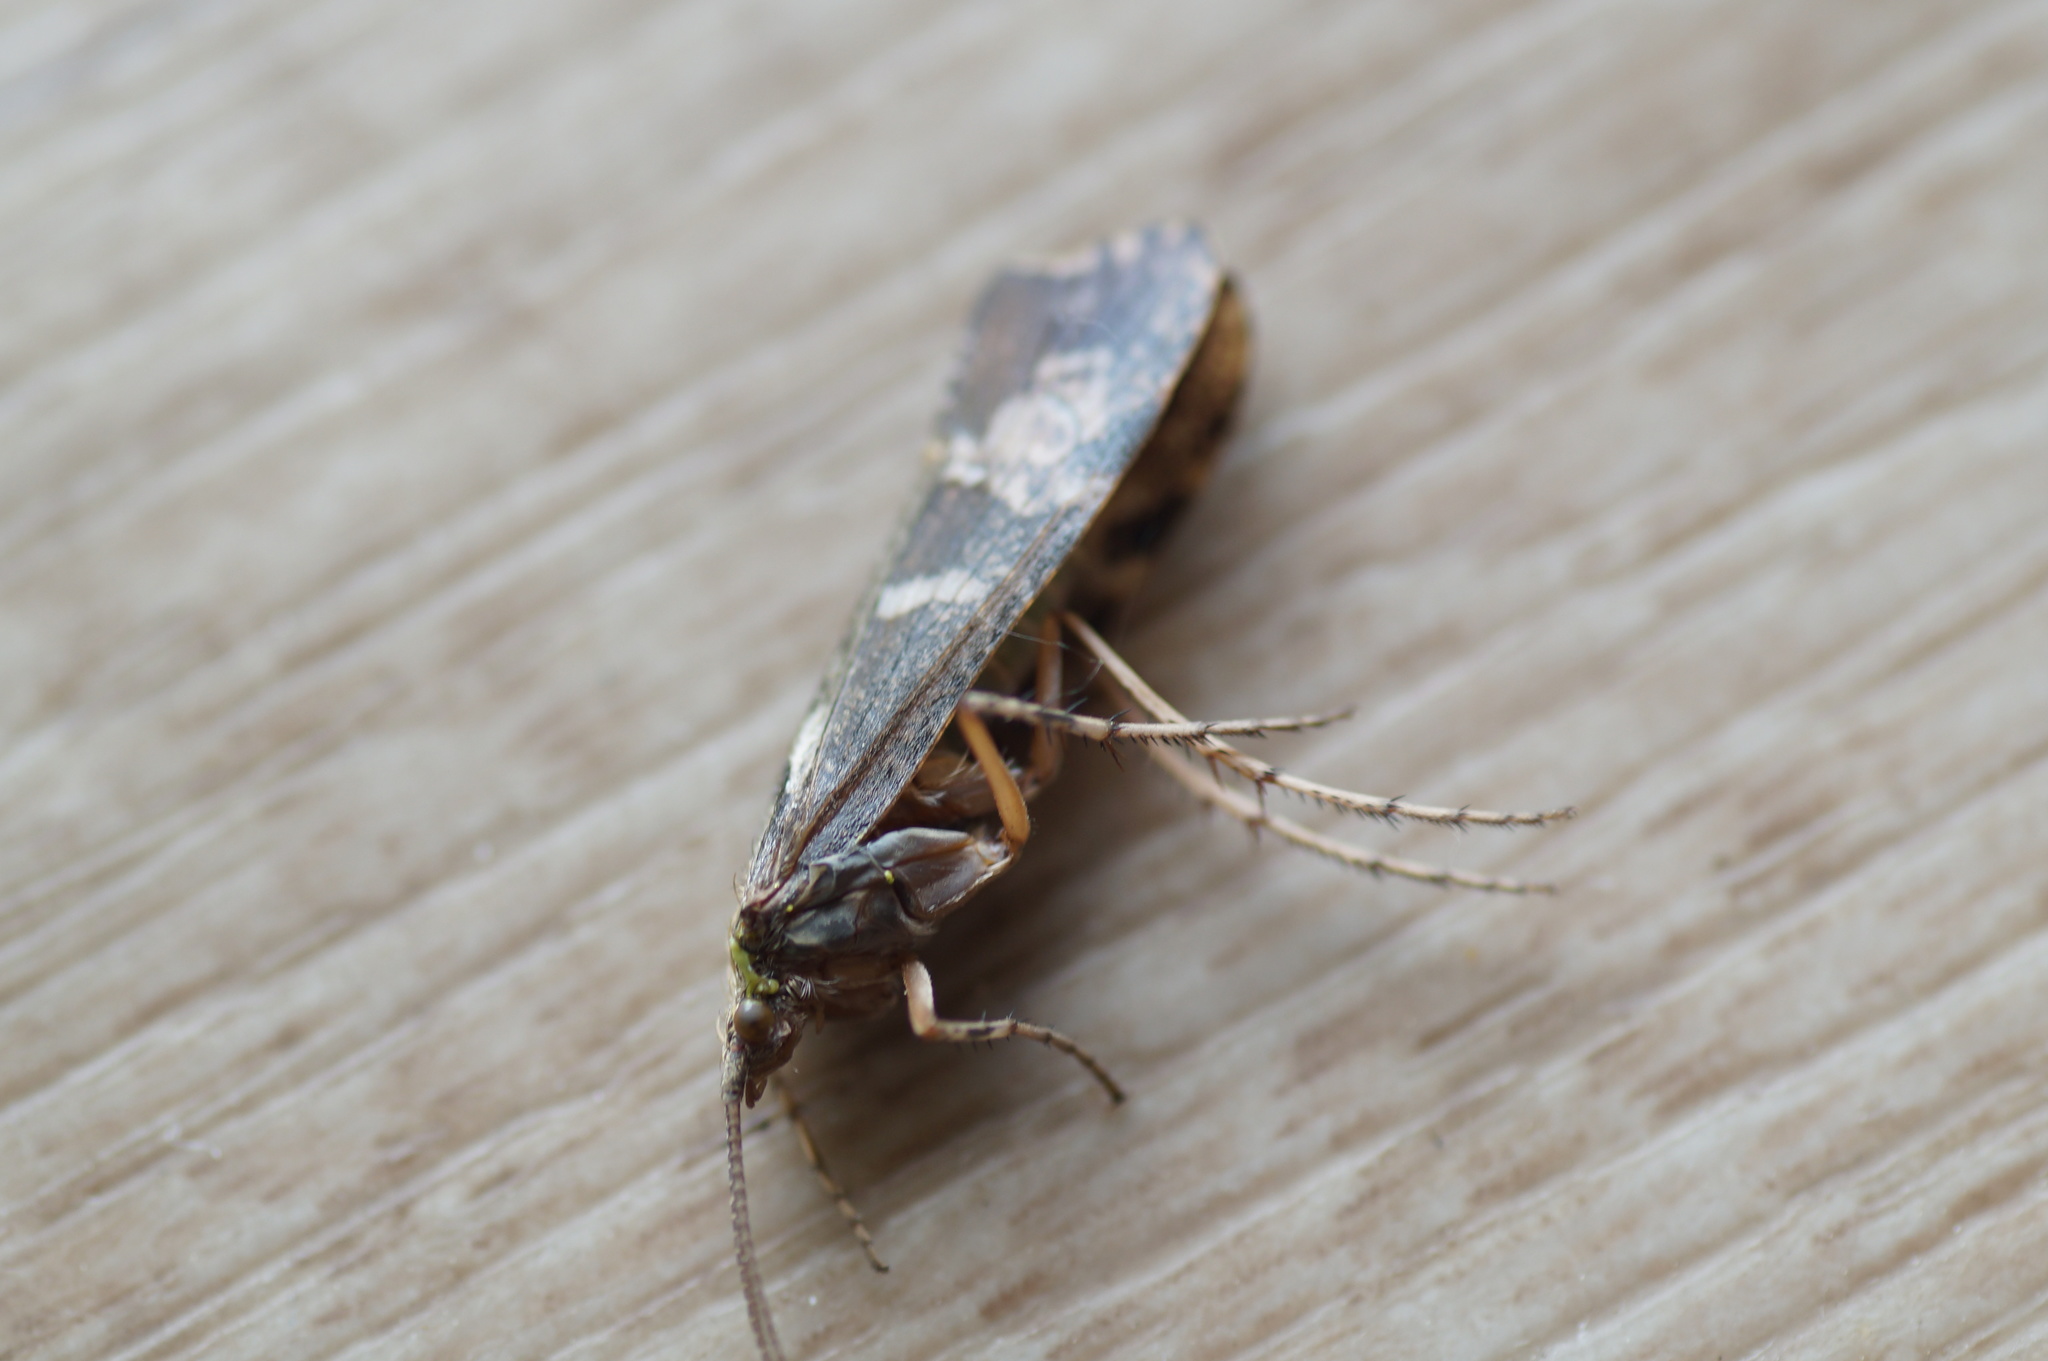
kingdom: Animalia
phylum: Arthropoda
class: Insecta
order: Trichoptera
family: Limnephilidae
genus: Glyphotaelius
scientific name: Glyphotaelius pellucidus
